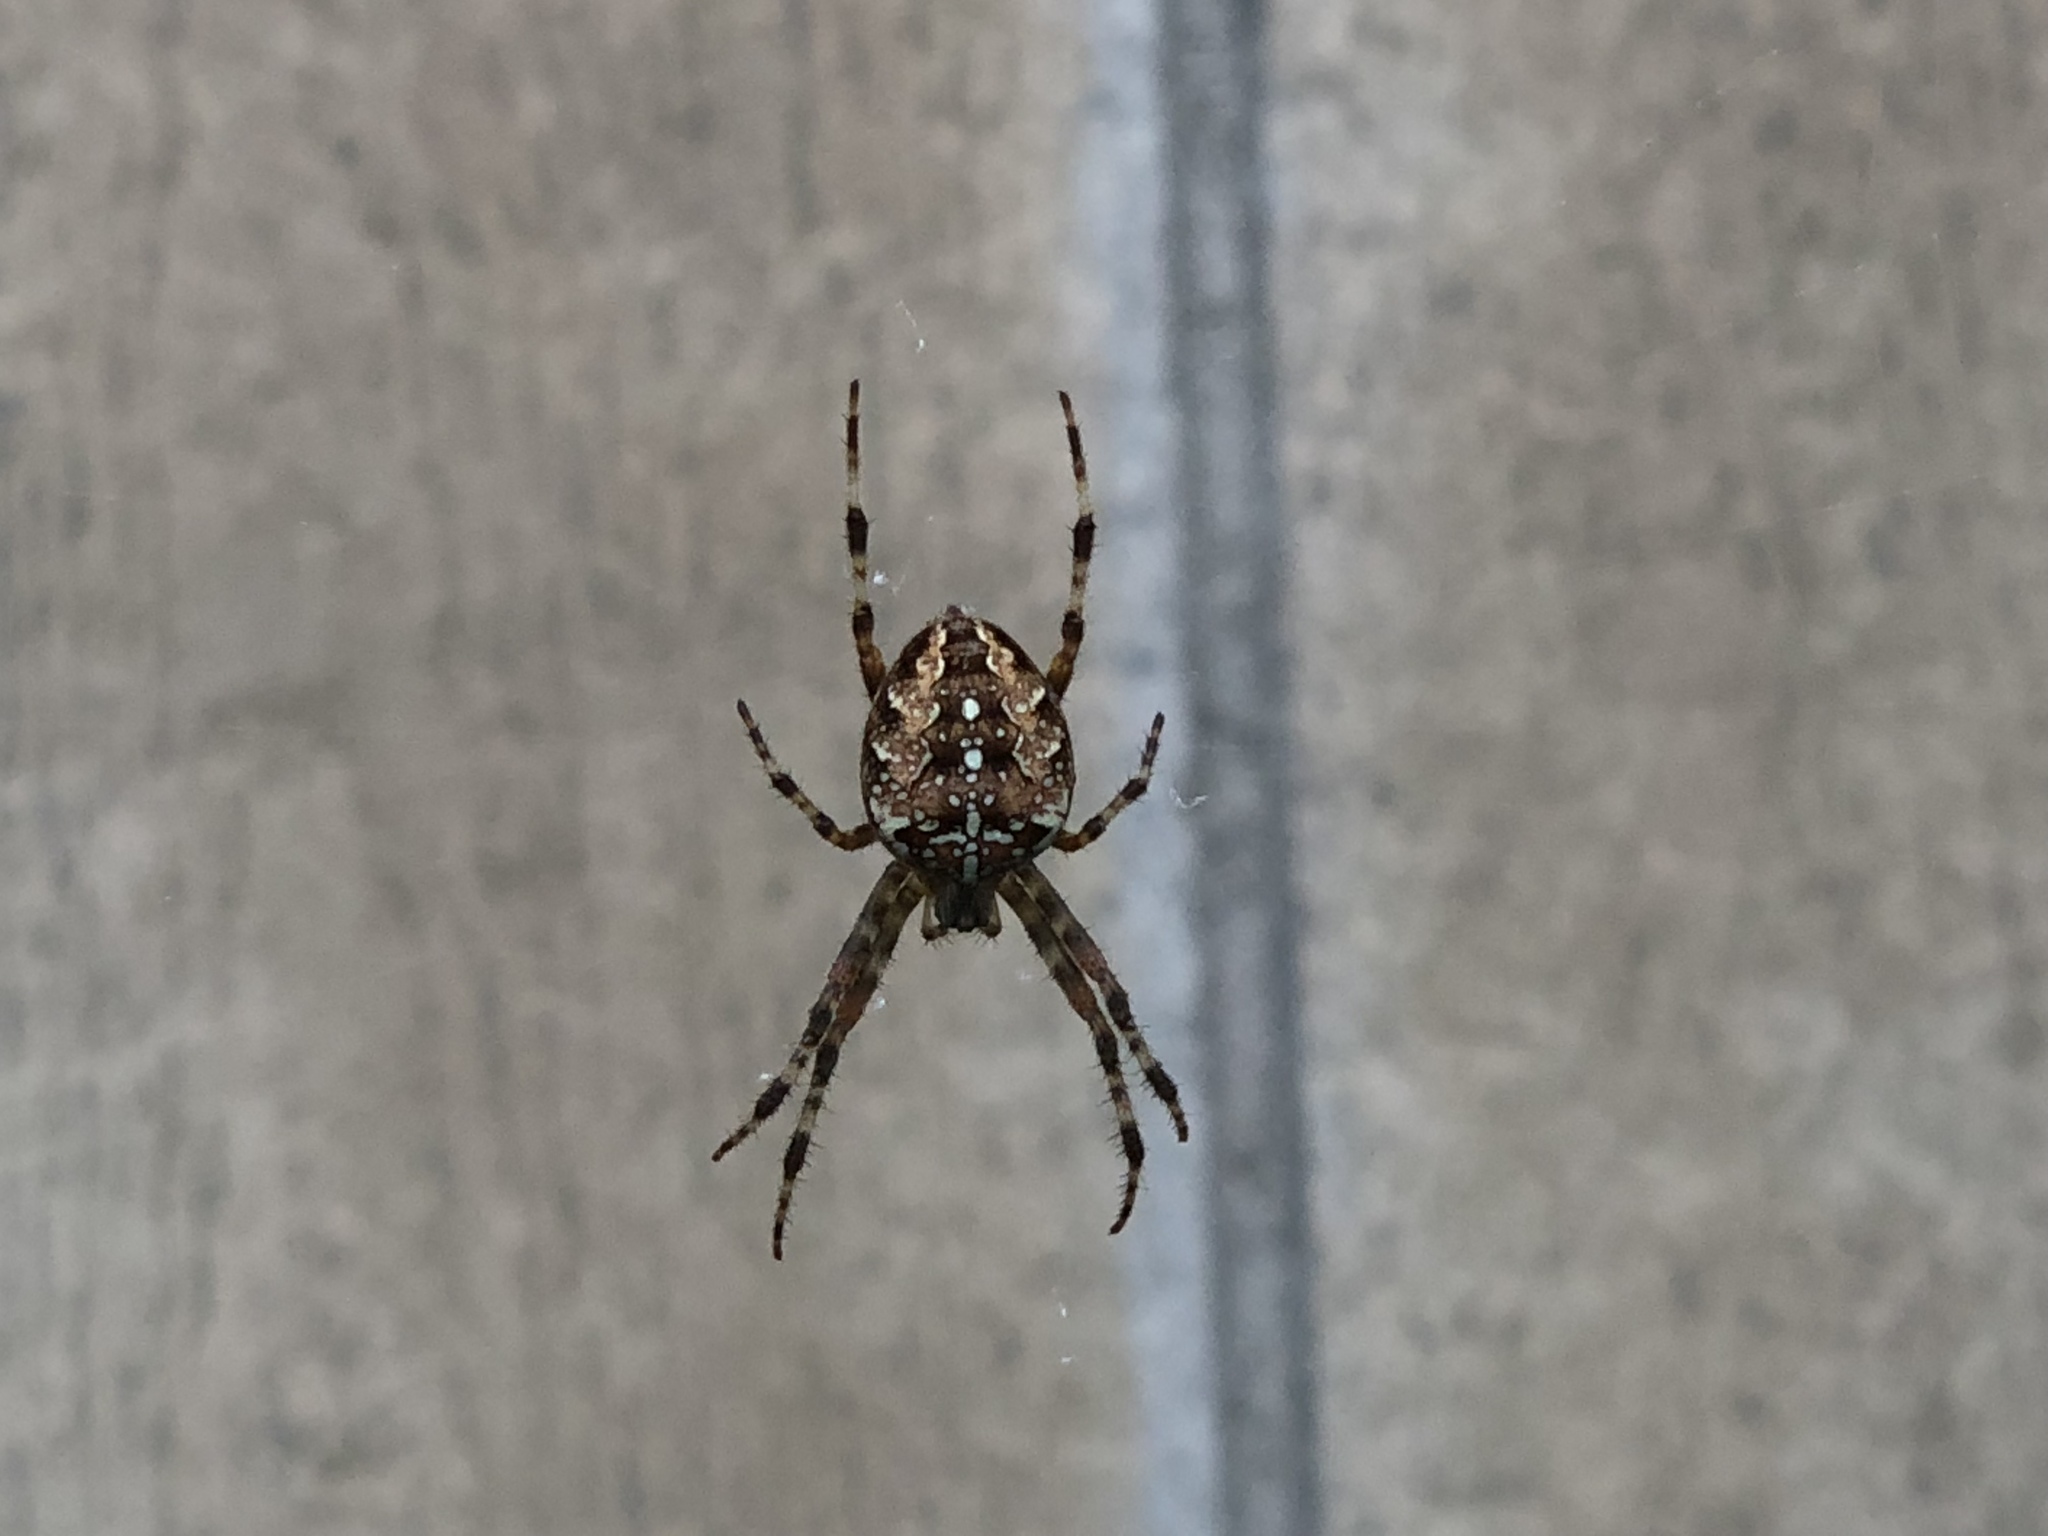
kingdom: Animalia
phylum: Arthropoda
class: Arachnida
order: Araneae
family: Araneidae
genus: Araneus
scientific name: Araneus diadematus
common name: Cross orbweaver
